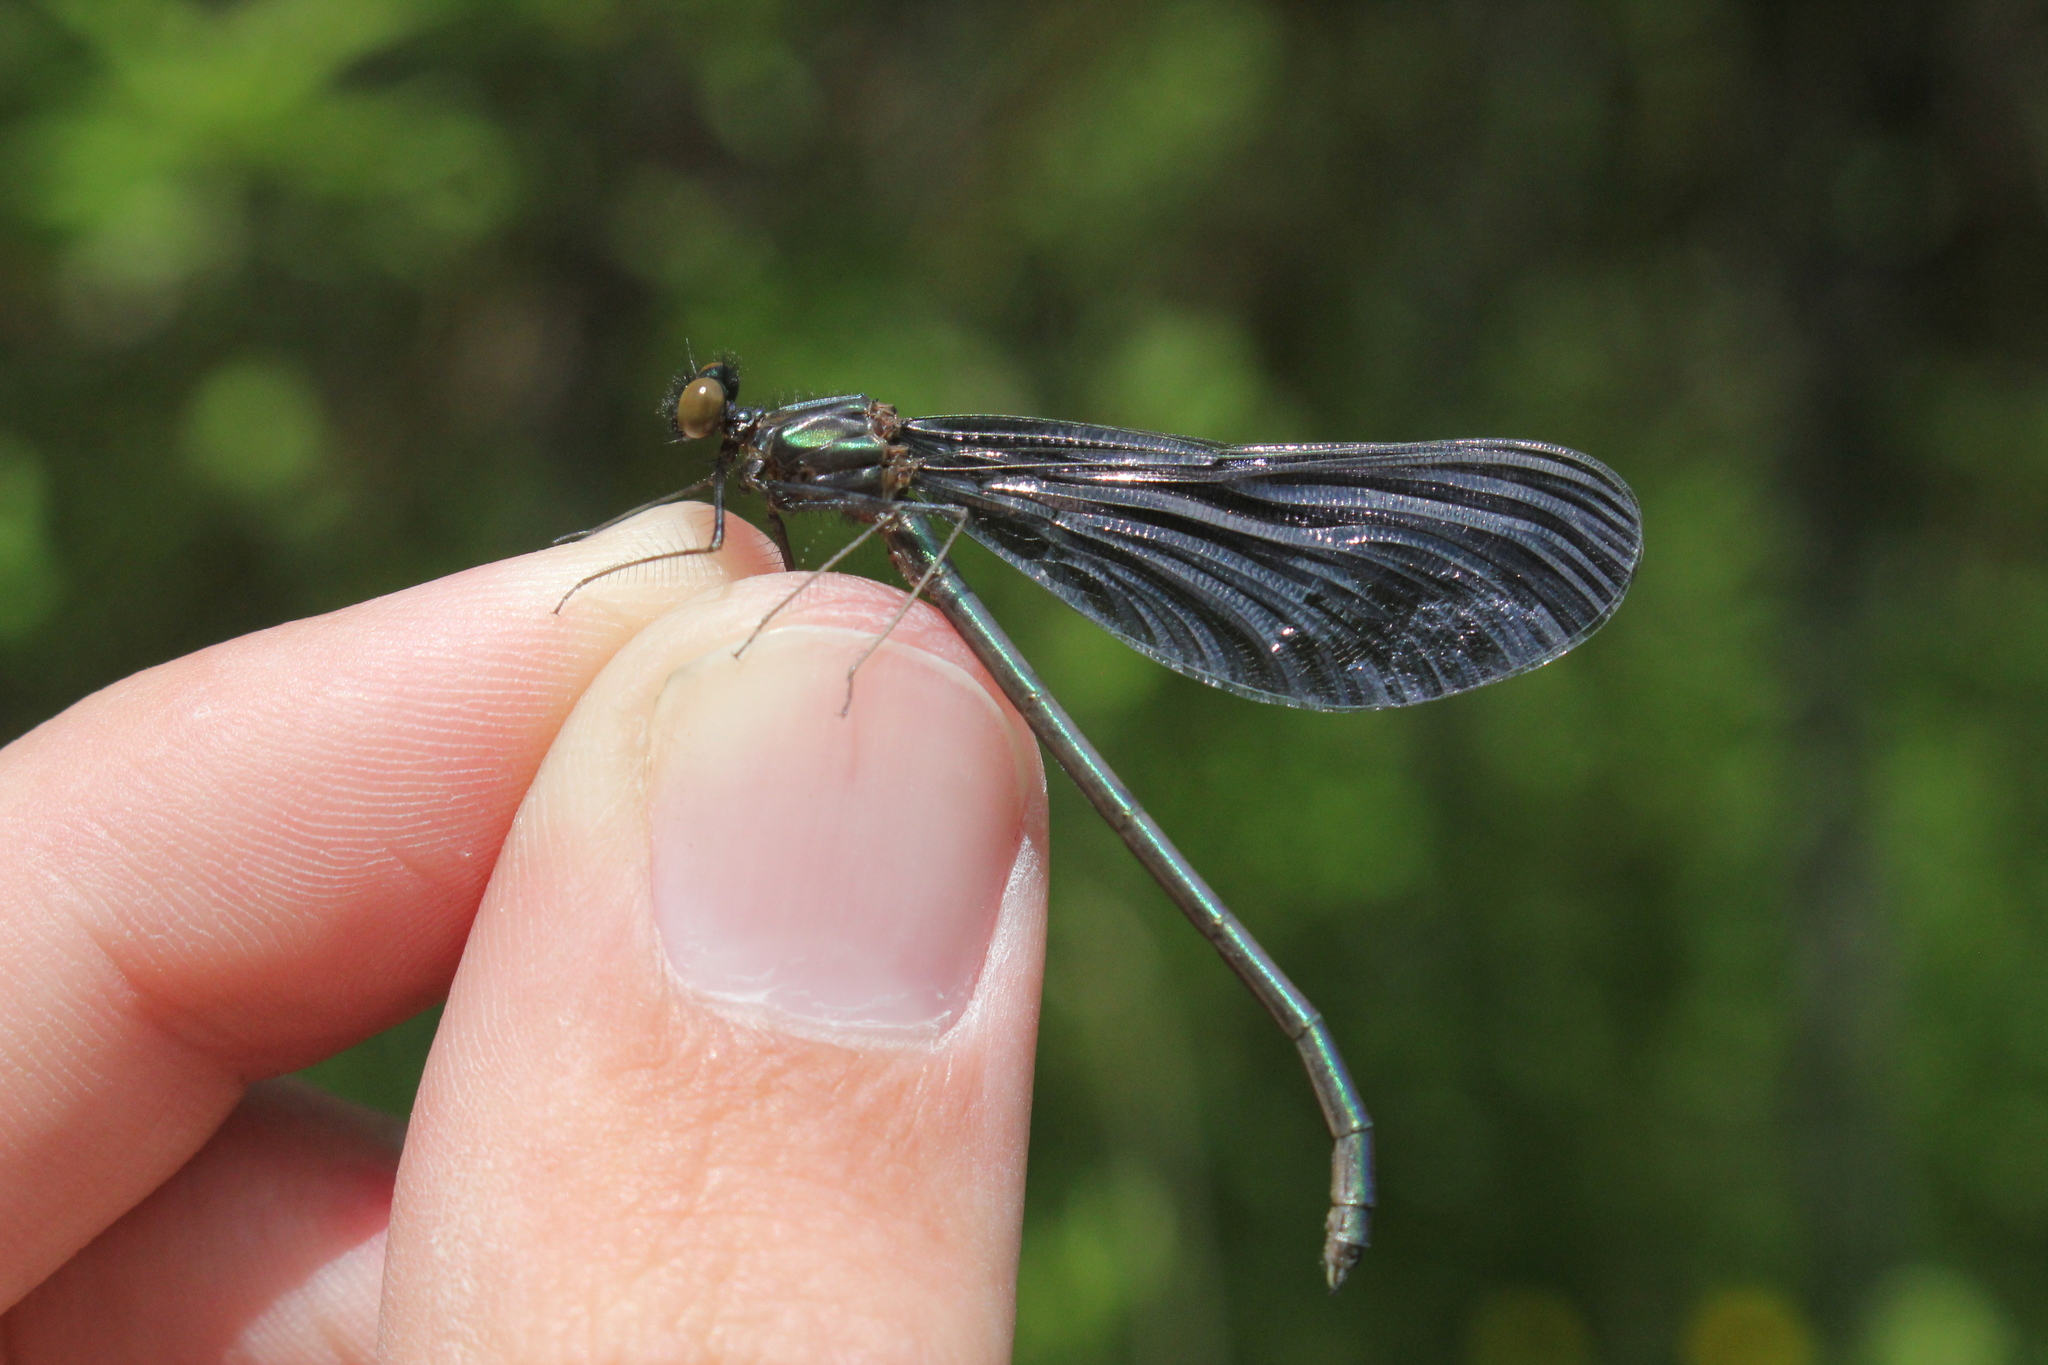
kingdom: Animalia
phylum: Arthropoda
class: Insecta
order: Odonata
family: Calopterygidae
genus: Calopteryx
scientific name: Calopteryx maculata
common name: Ebony jewelwing
